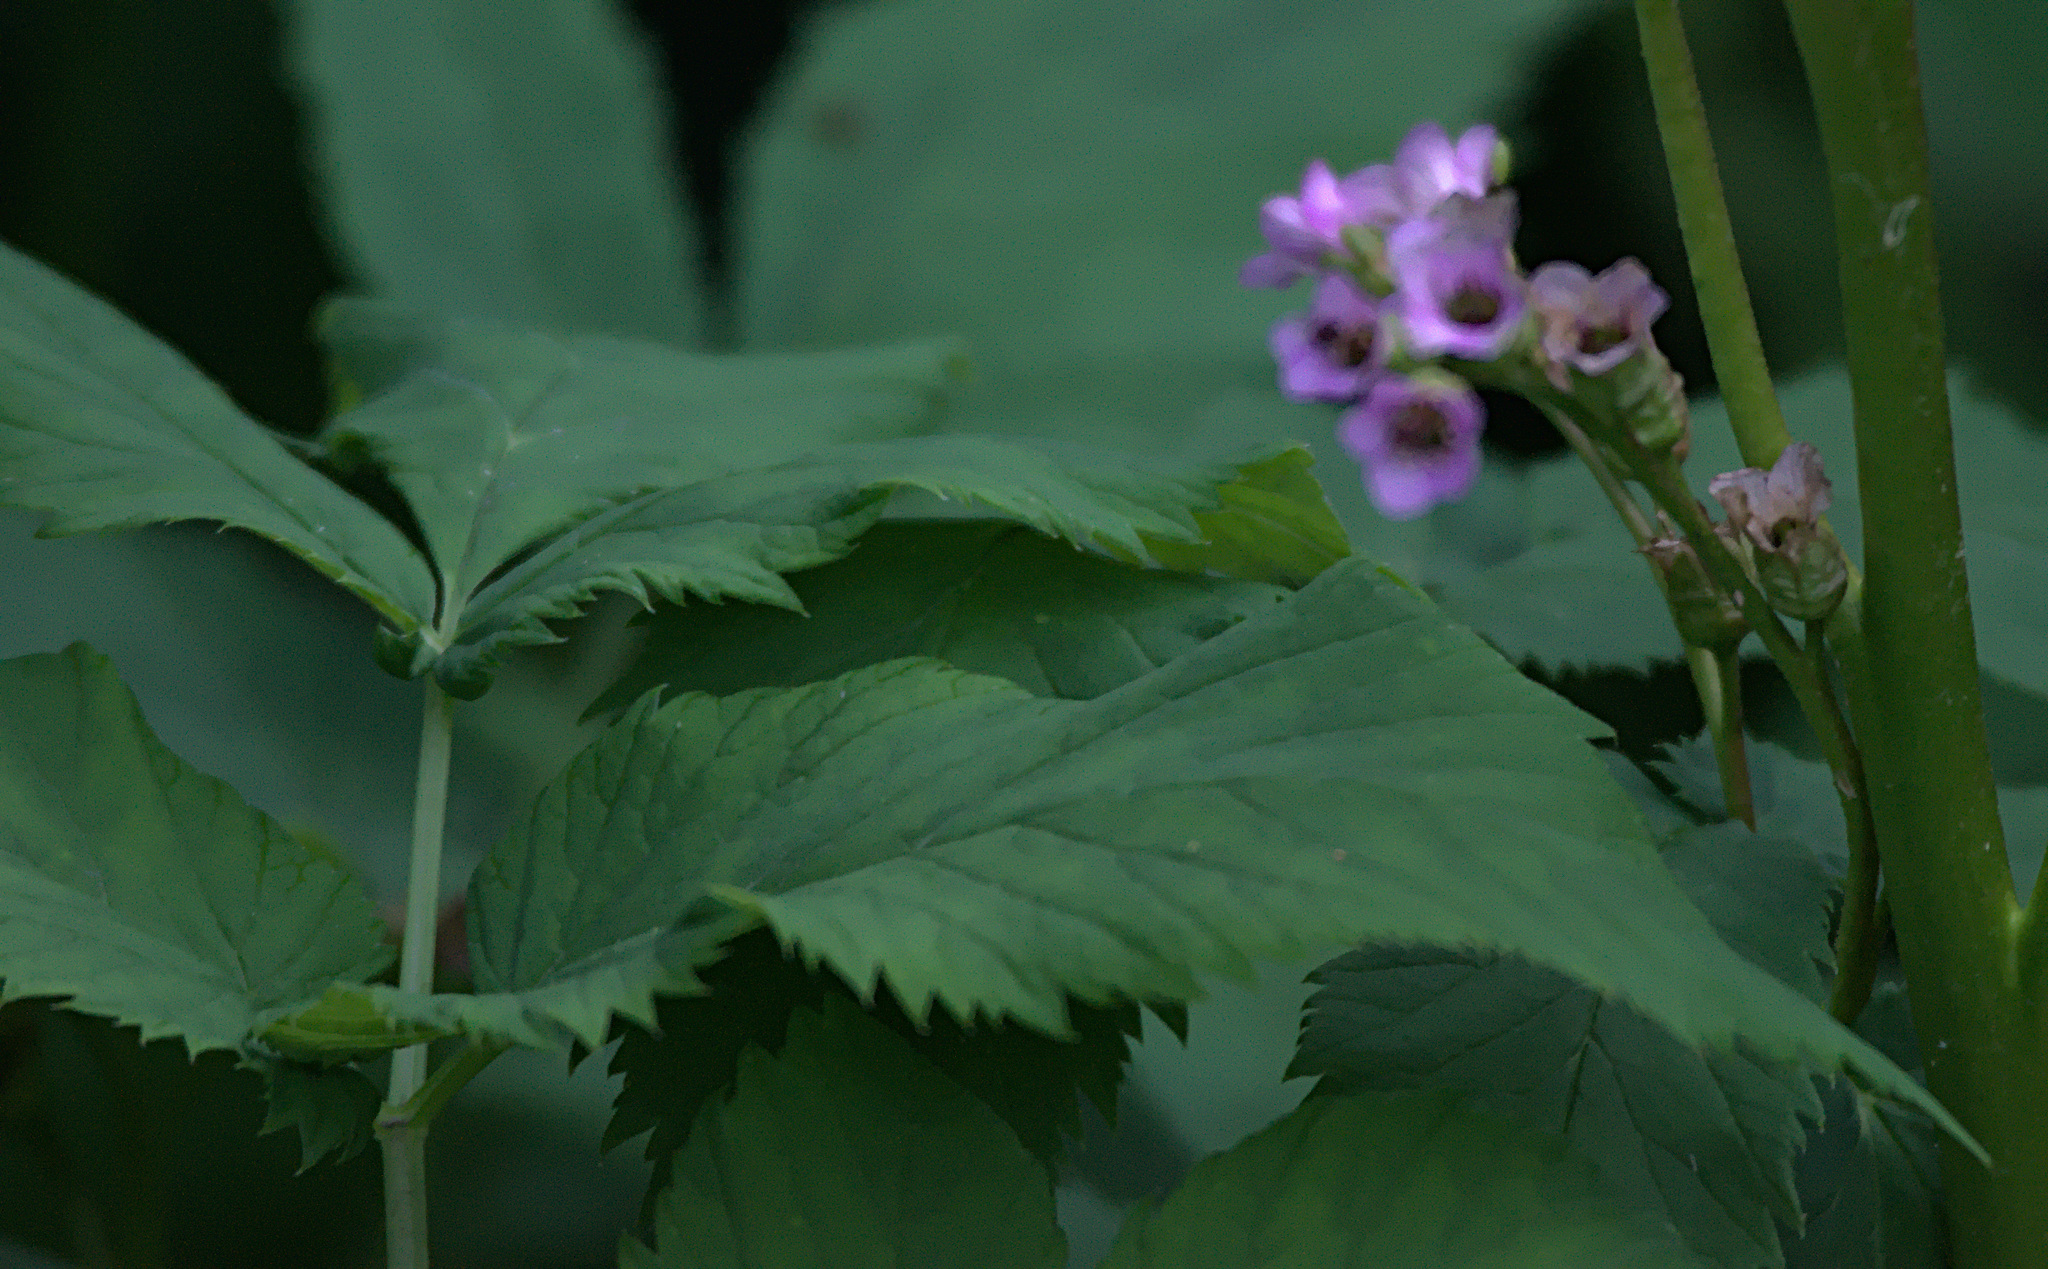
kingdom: Plantae
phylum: Tracheophyta
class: Magnoliopsida
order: Saxifragales
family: Saxifragaceae
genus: Bergenia
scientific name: Bergenia crassifolia
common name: Elephant-ears
